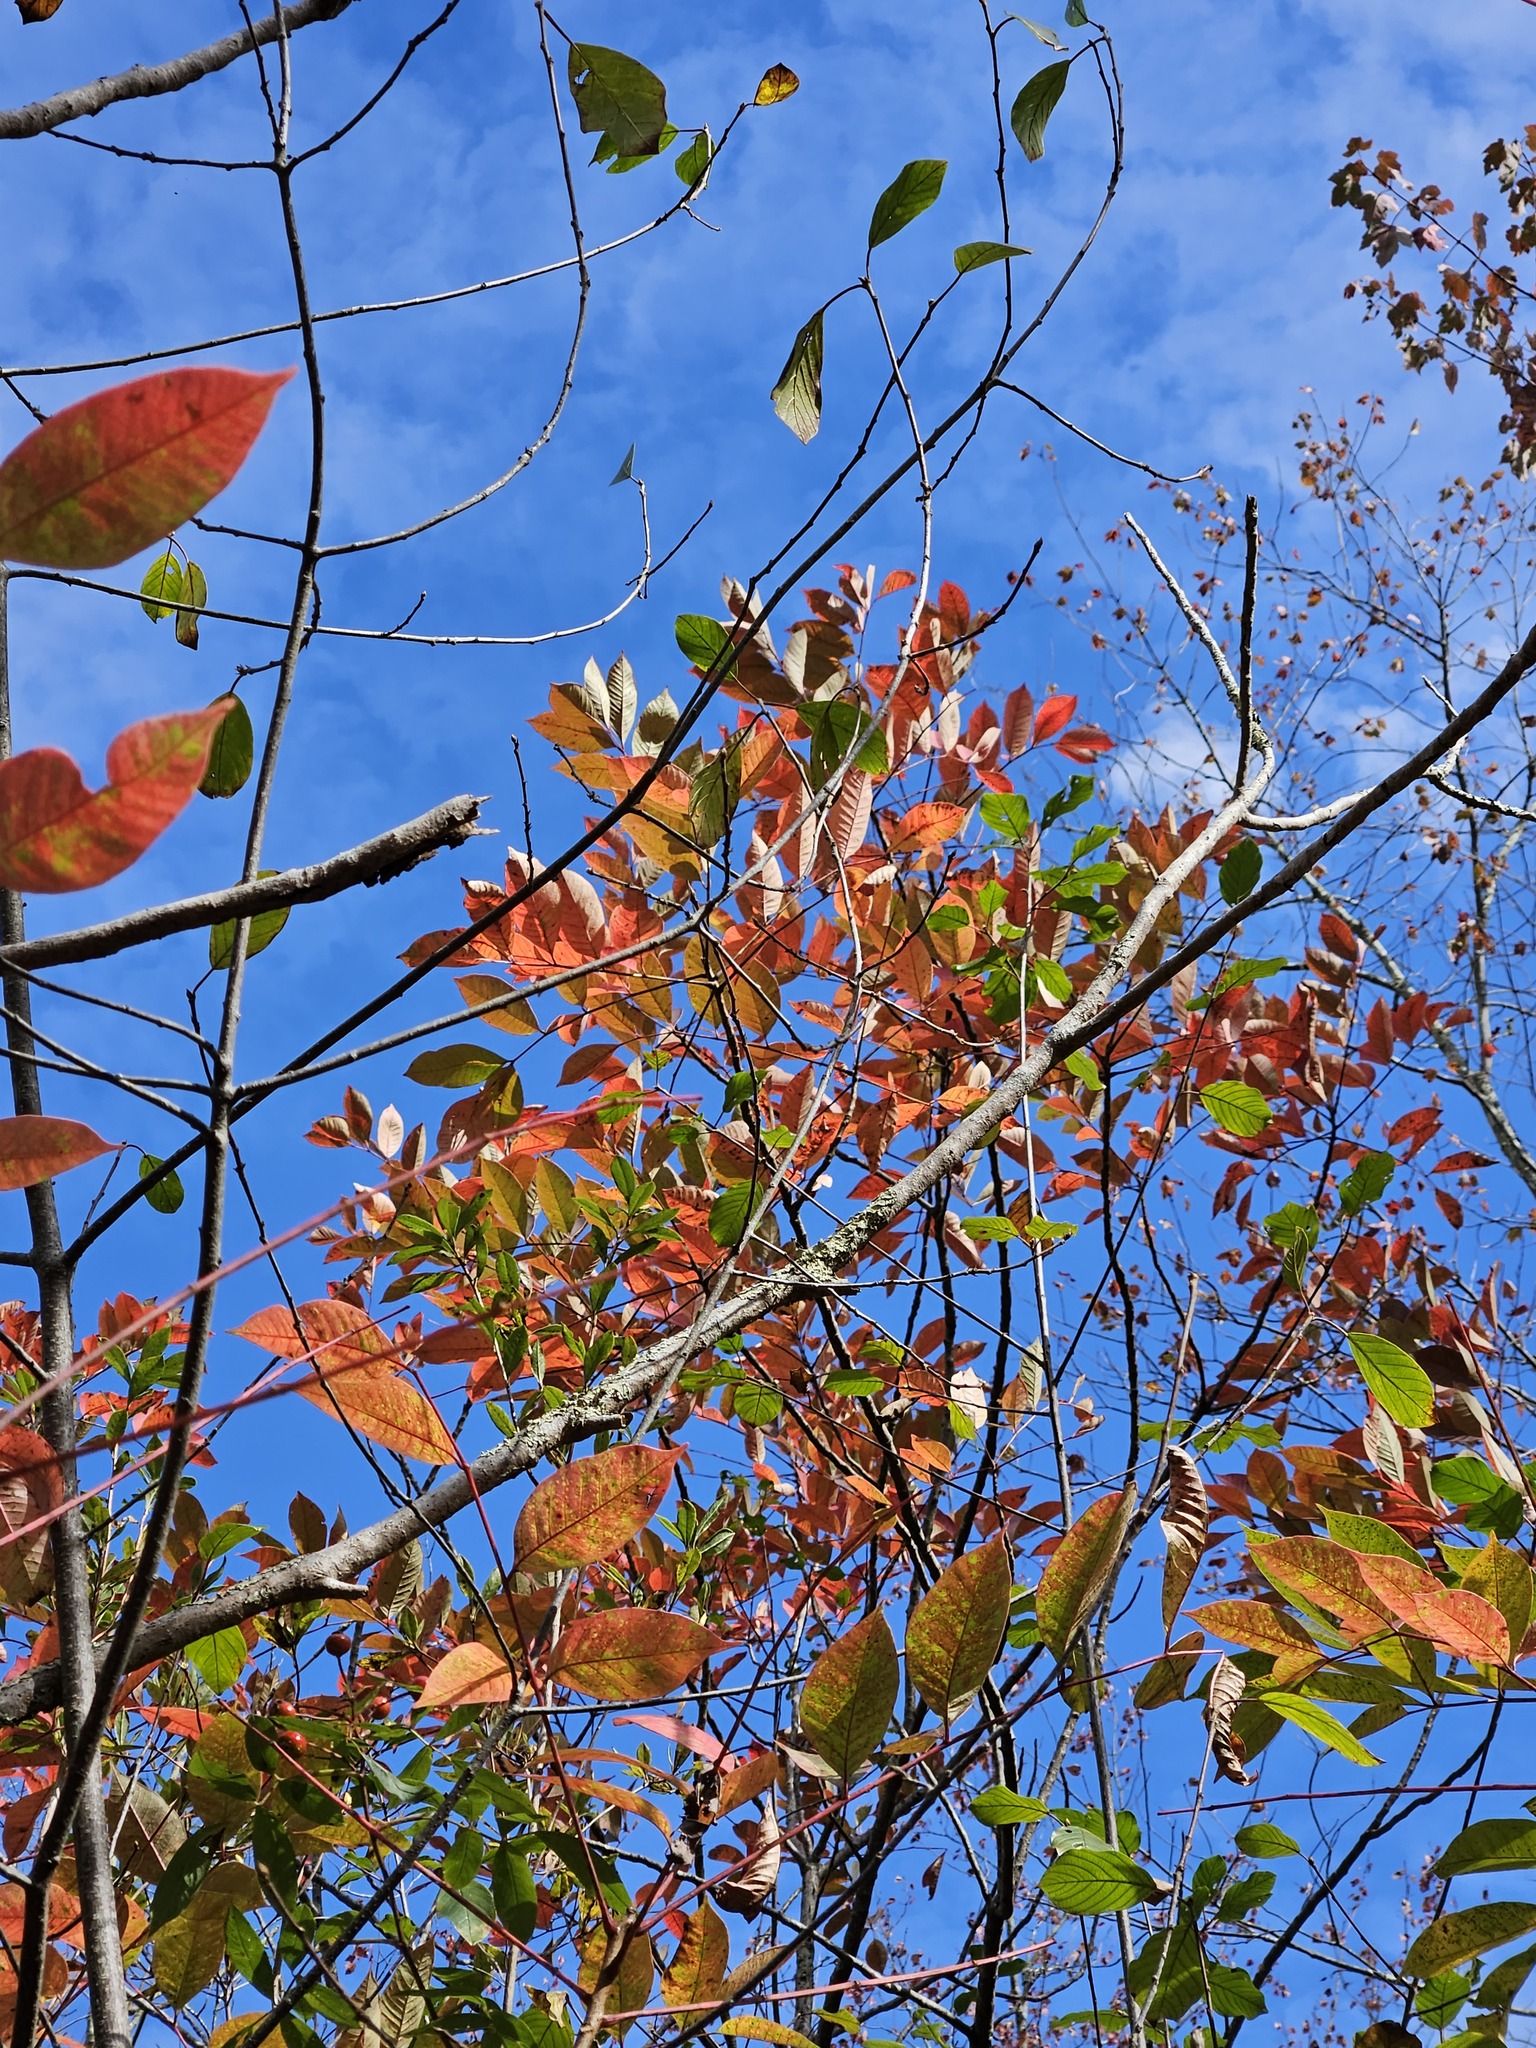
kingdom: Plantae
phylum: Tracheophyta
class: Magnoliopsida
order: Sapindales
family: Anacardiaceae
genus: Toxicodendron
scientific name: Toxicodendron vernix
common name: Poison sumac
